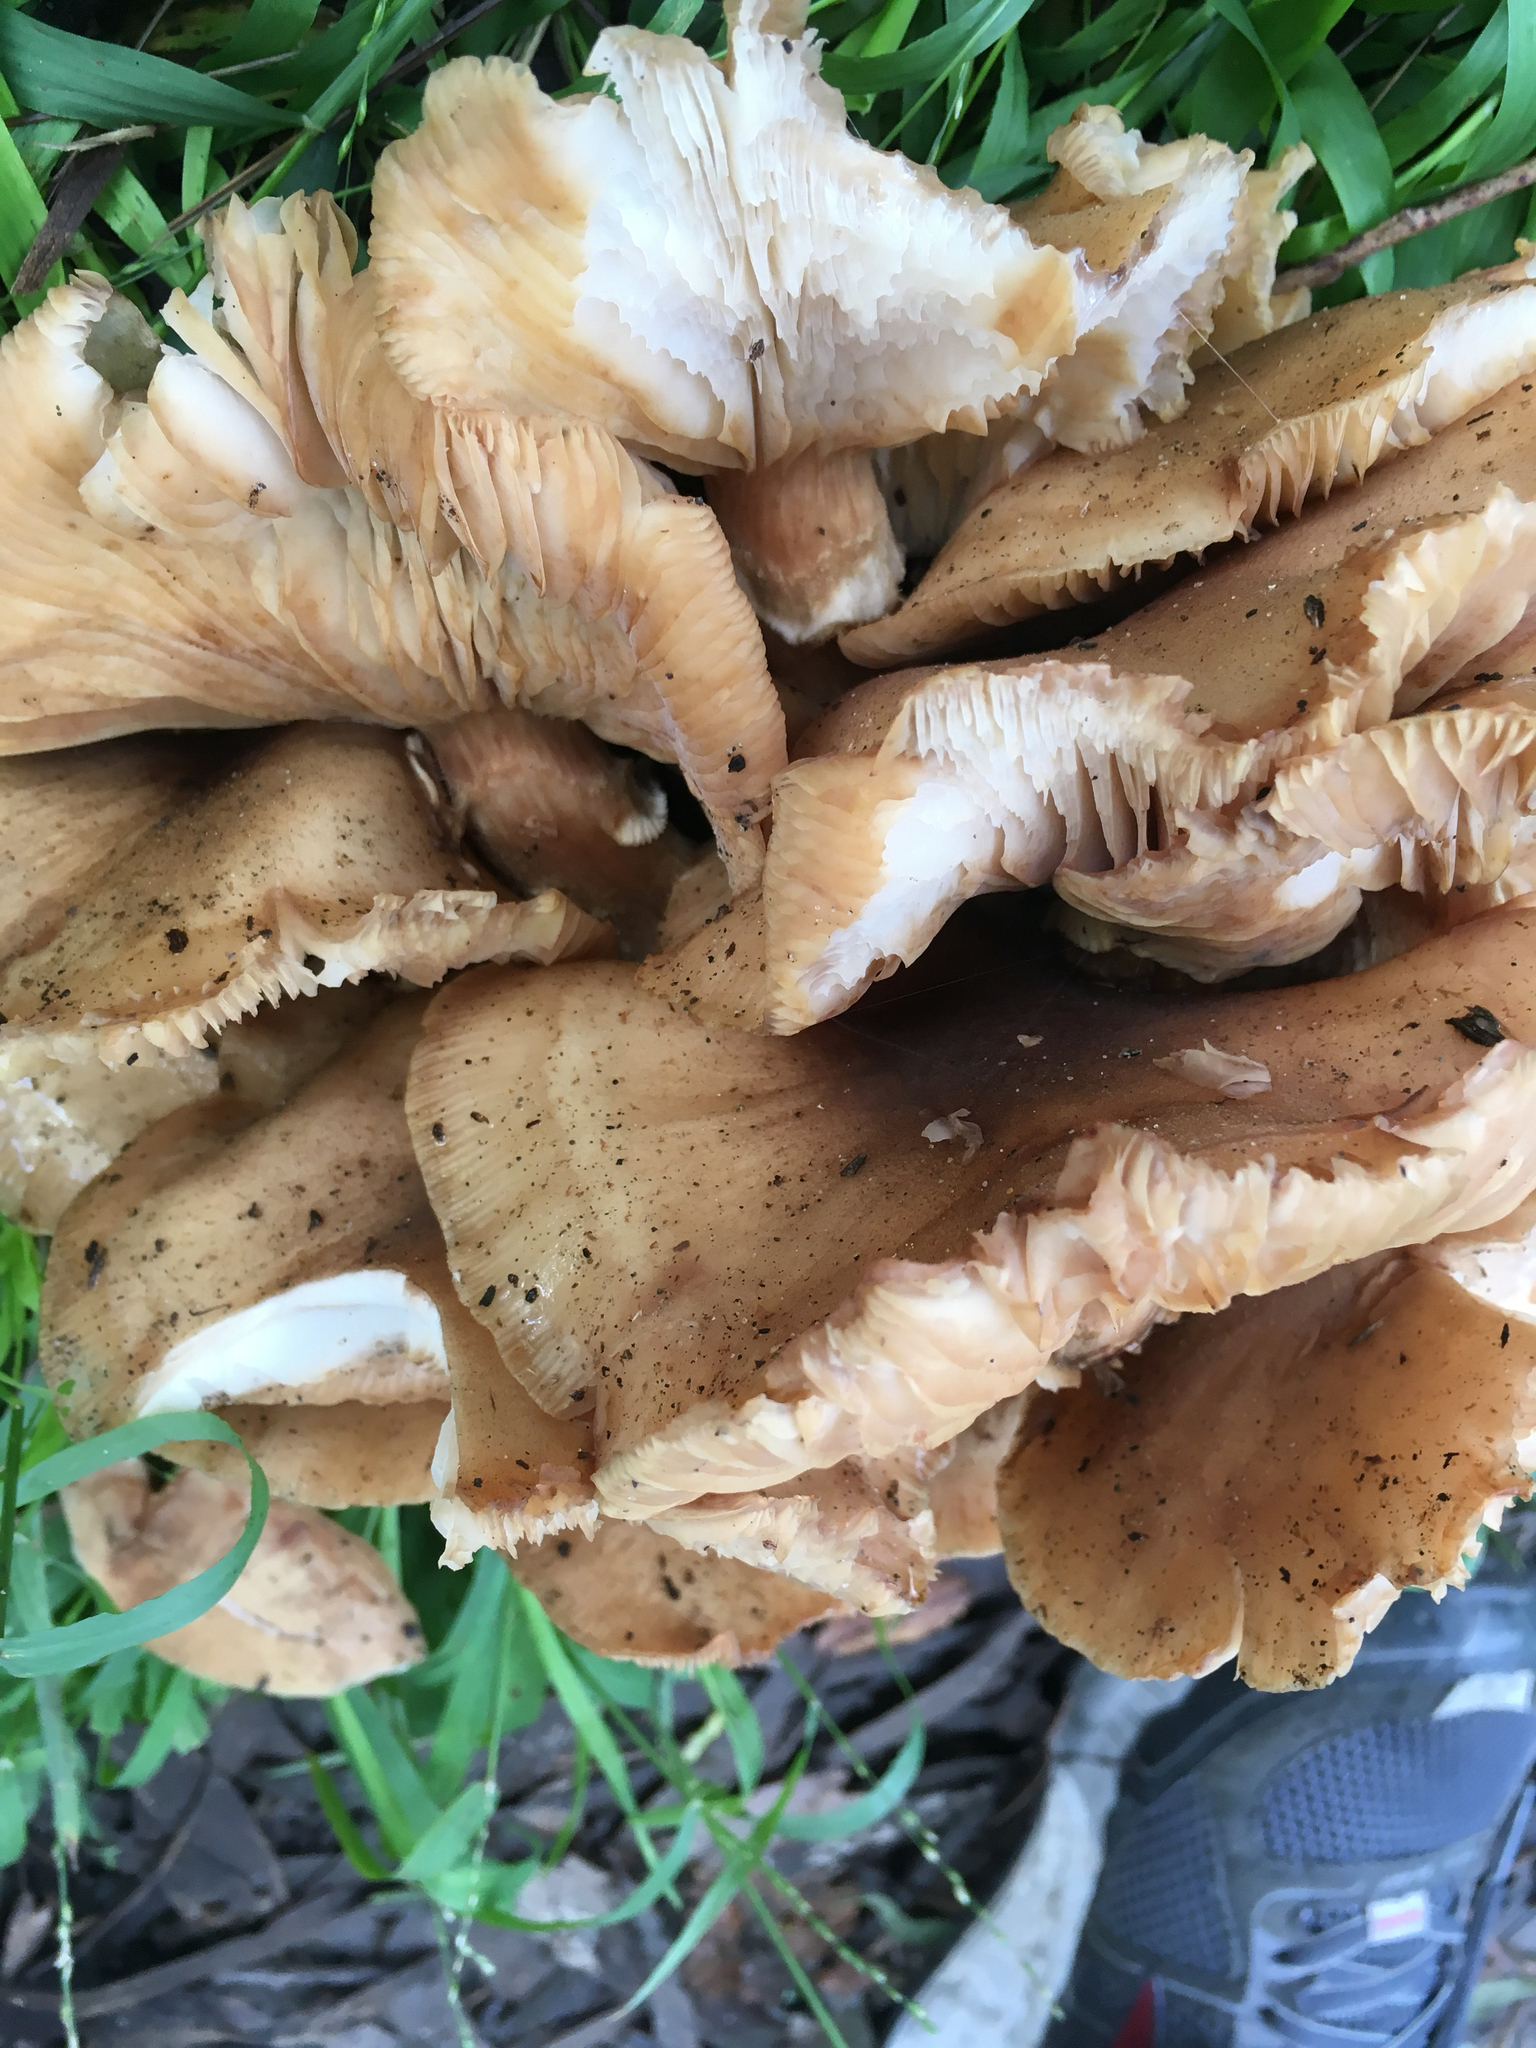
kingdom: Fungi
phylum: Basidiomycota
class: Agaricomycetes
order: Agaricales
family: Physalacriaceae
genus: Armillaria
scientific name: Armillaria mellea
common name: Honey fungus
